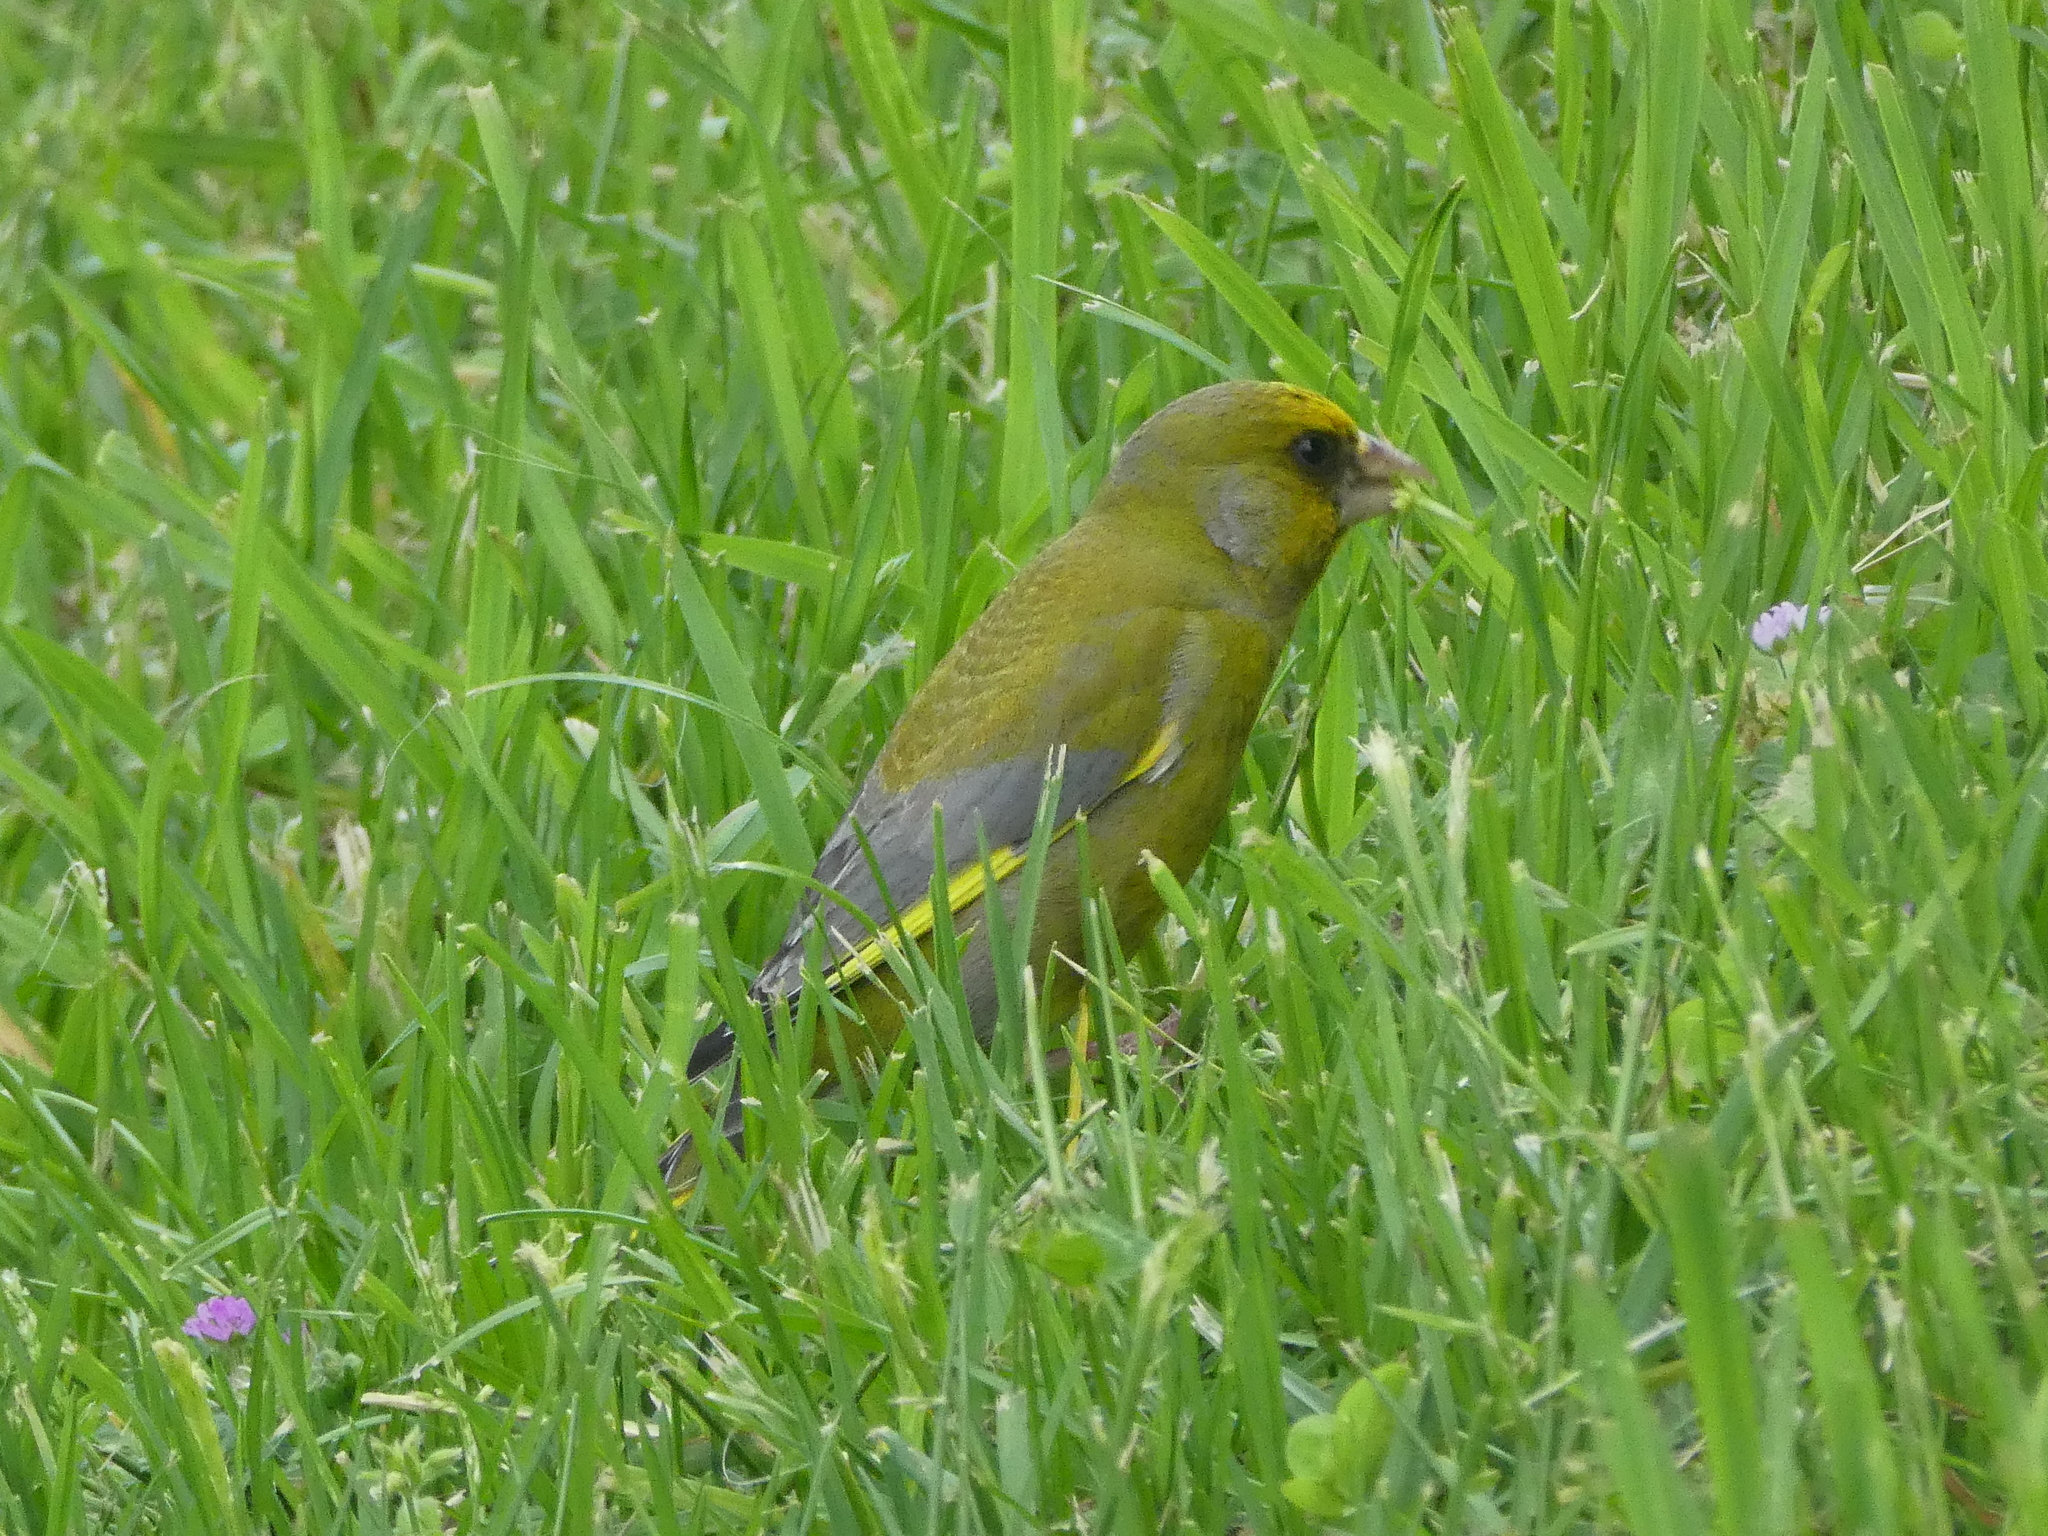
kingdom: Plantae
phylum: Tracheophyta
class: Liliopsida
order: Poales
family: Poaceae
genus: Chloris
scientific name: Chloris chloris
